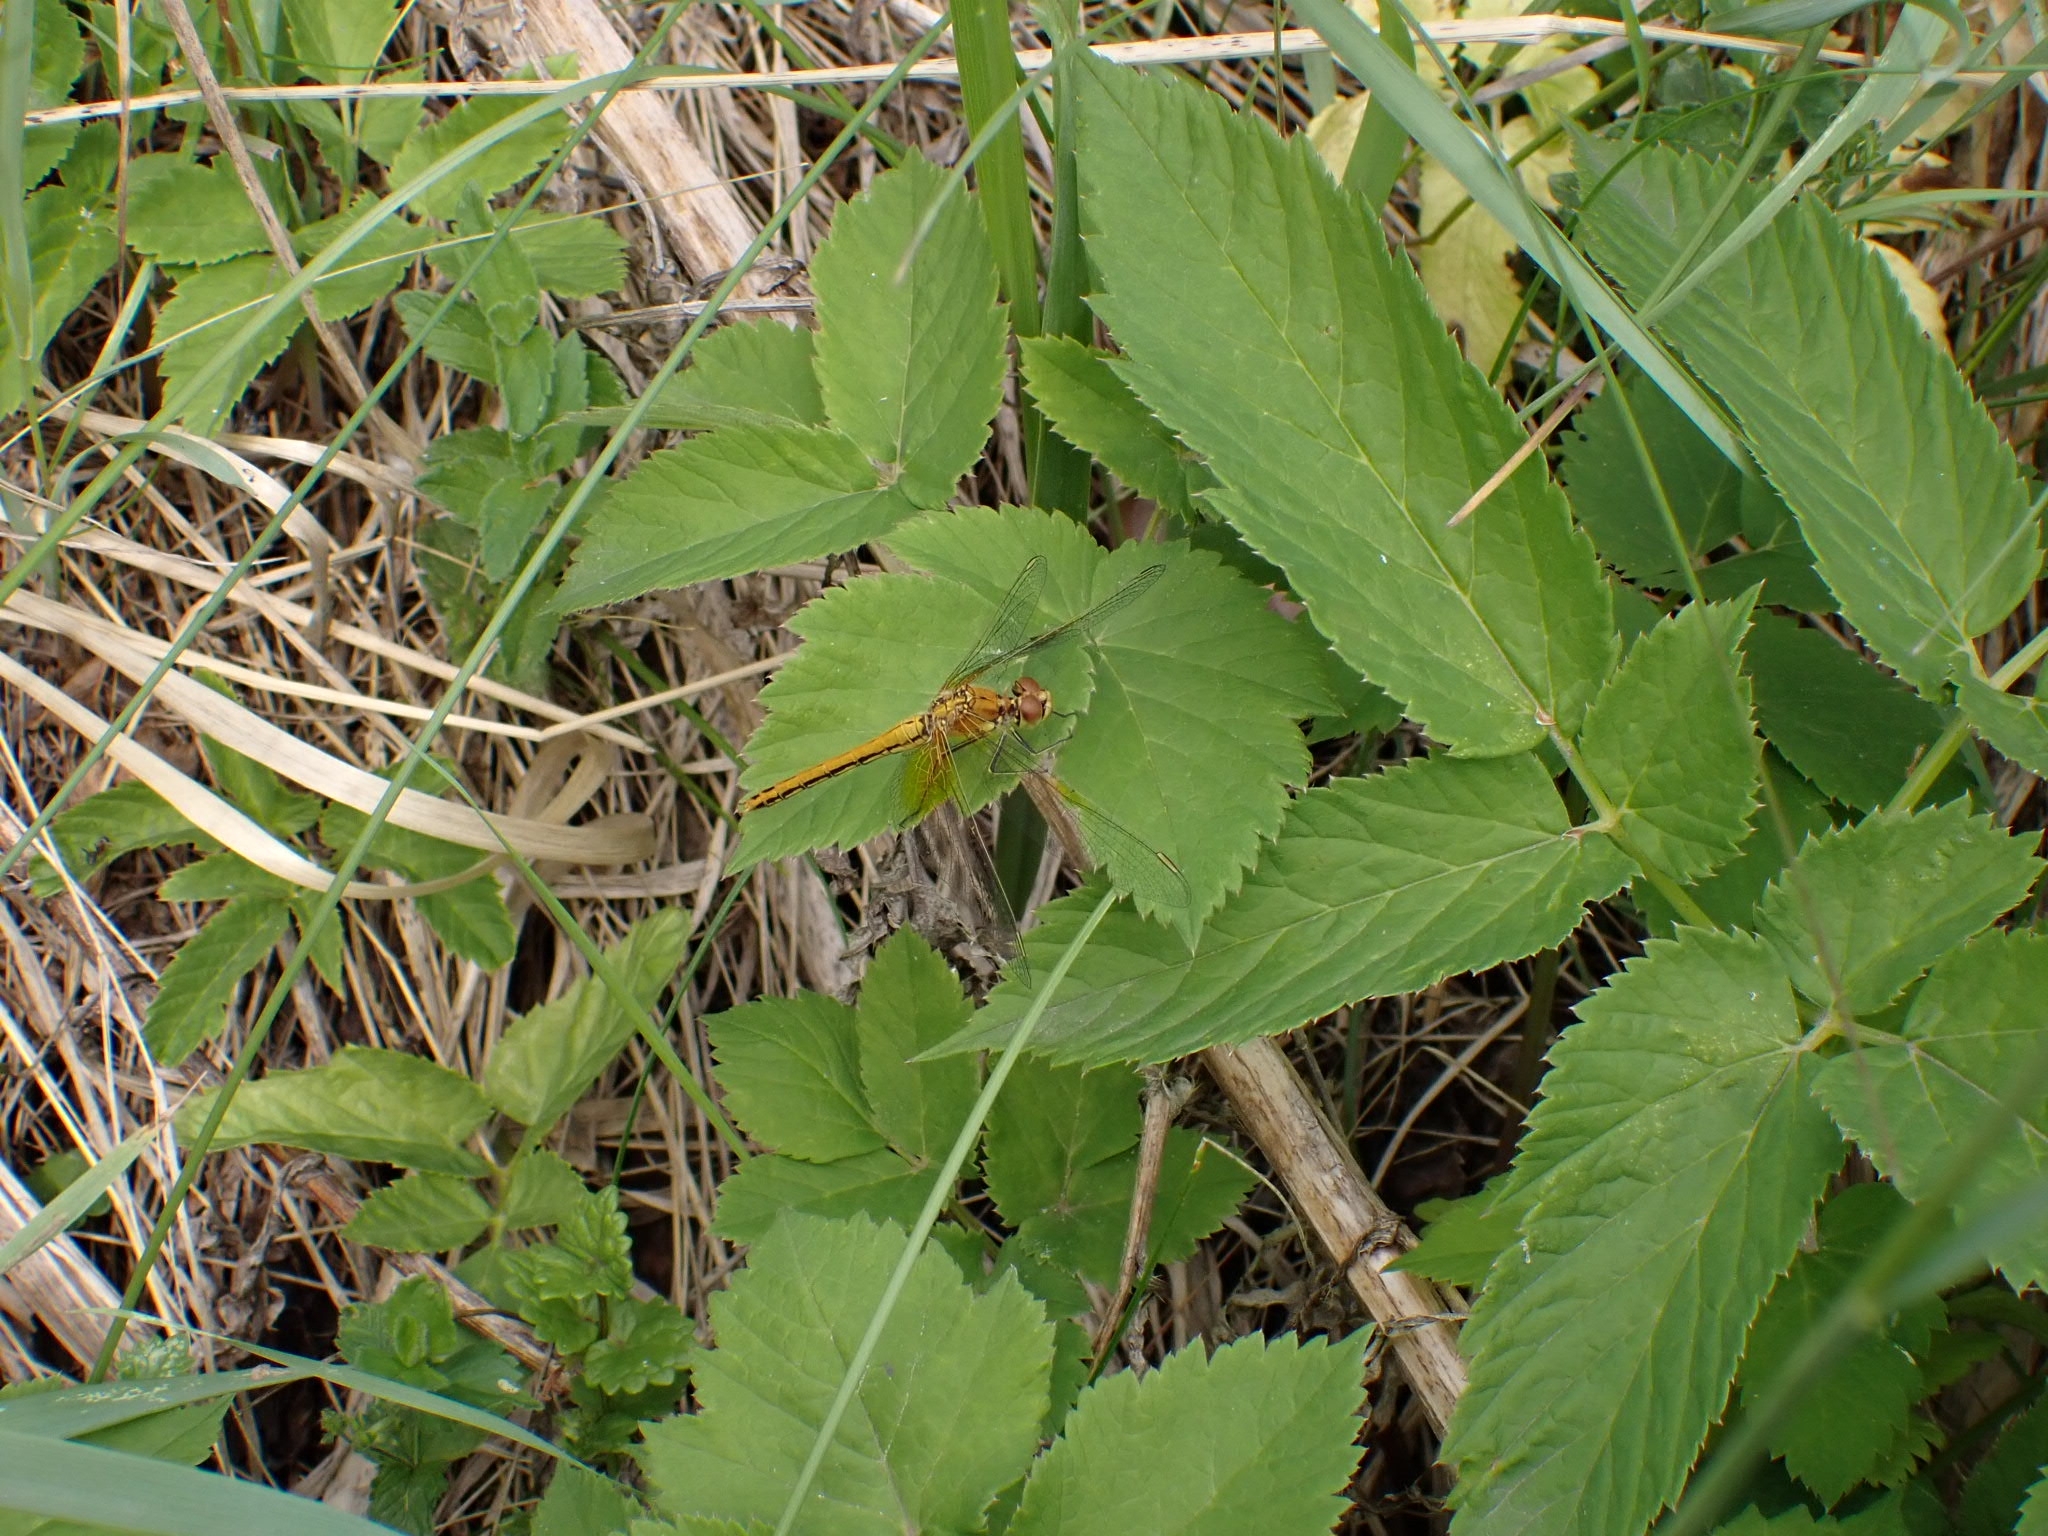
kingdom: Animalia
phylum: Arthropoda
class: Insecta
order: Odonata
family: Libellulidae
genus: Sympetrum
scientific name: Sympetrum flaveolum
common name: Yellow-winged darter
